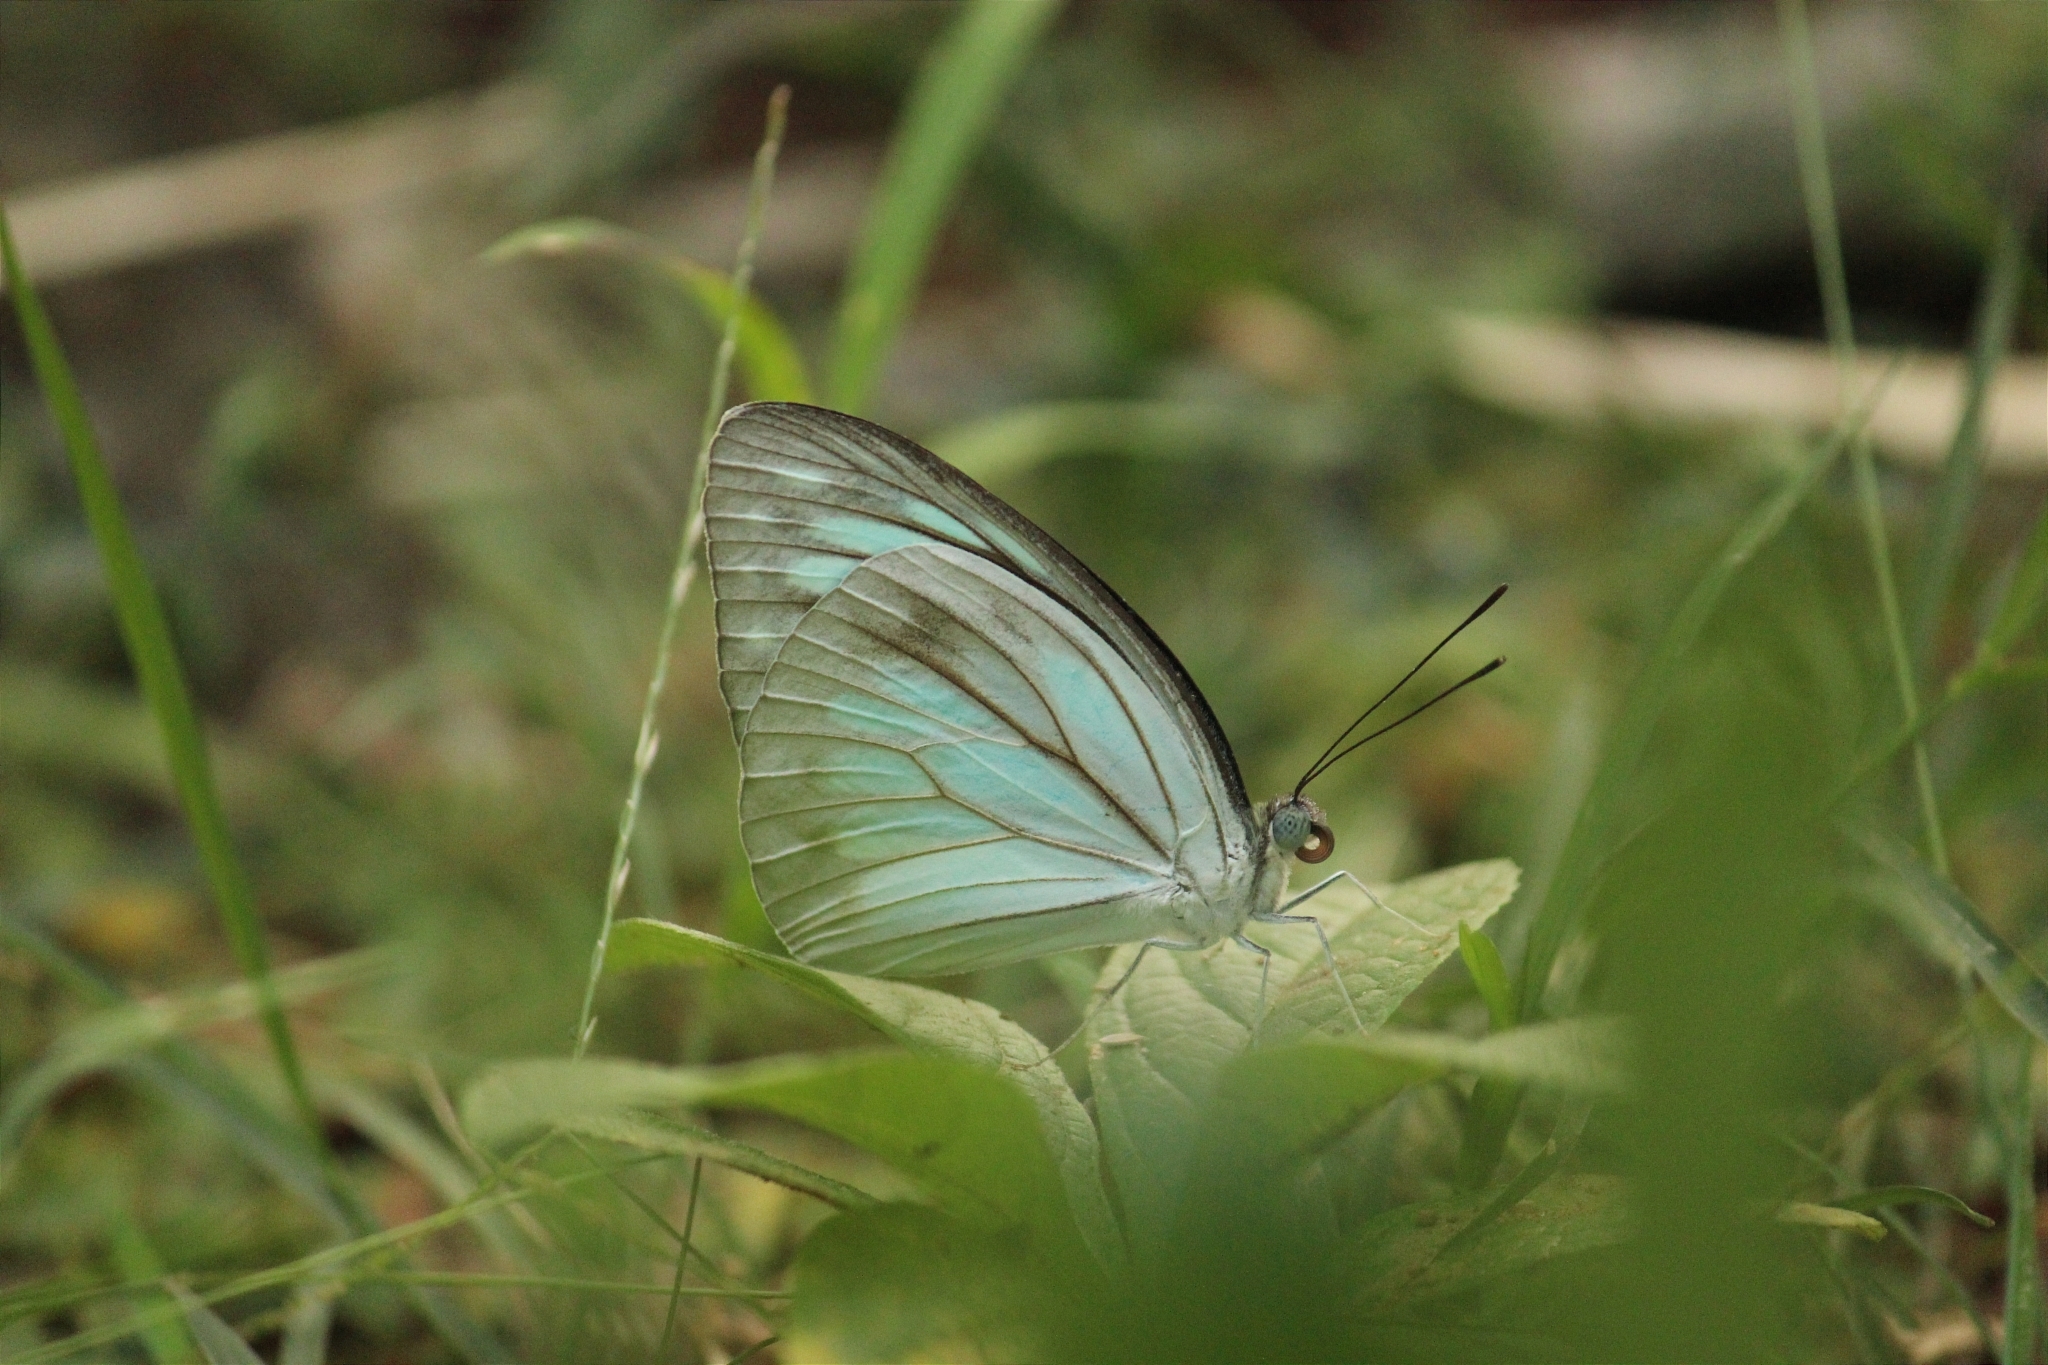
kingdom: Animalia
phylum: Arthropoda
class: Insecta
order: Lepidoptera
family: Pieridae
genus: Pareronia
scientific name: Pareronia hippia
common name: Indian wanderer
